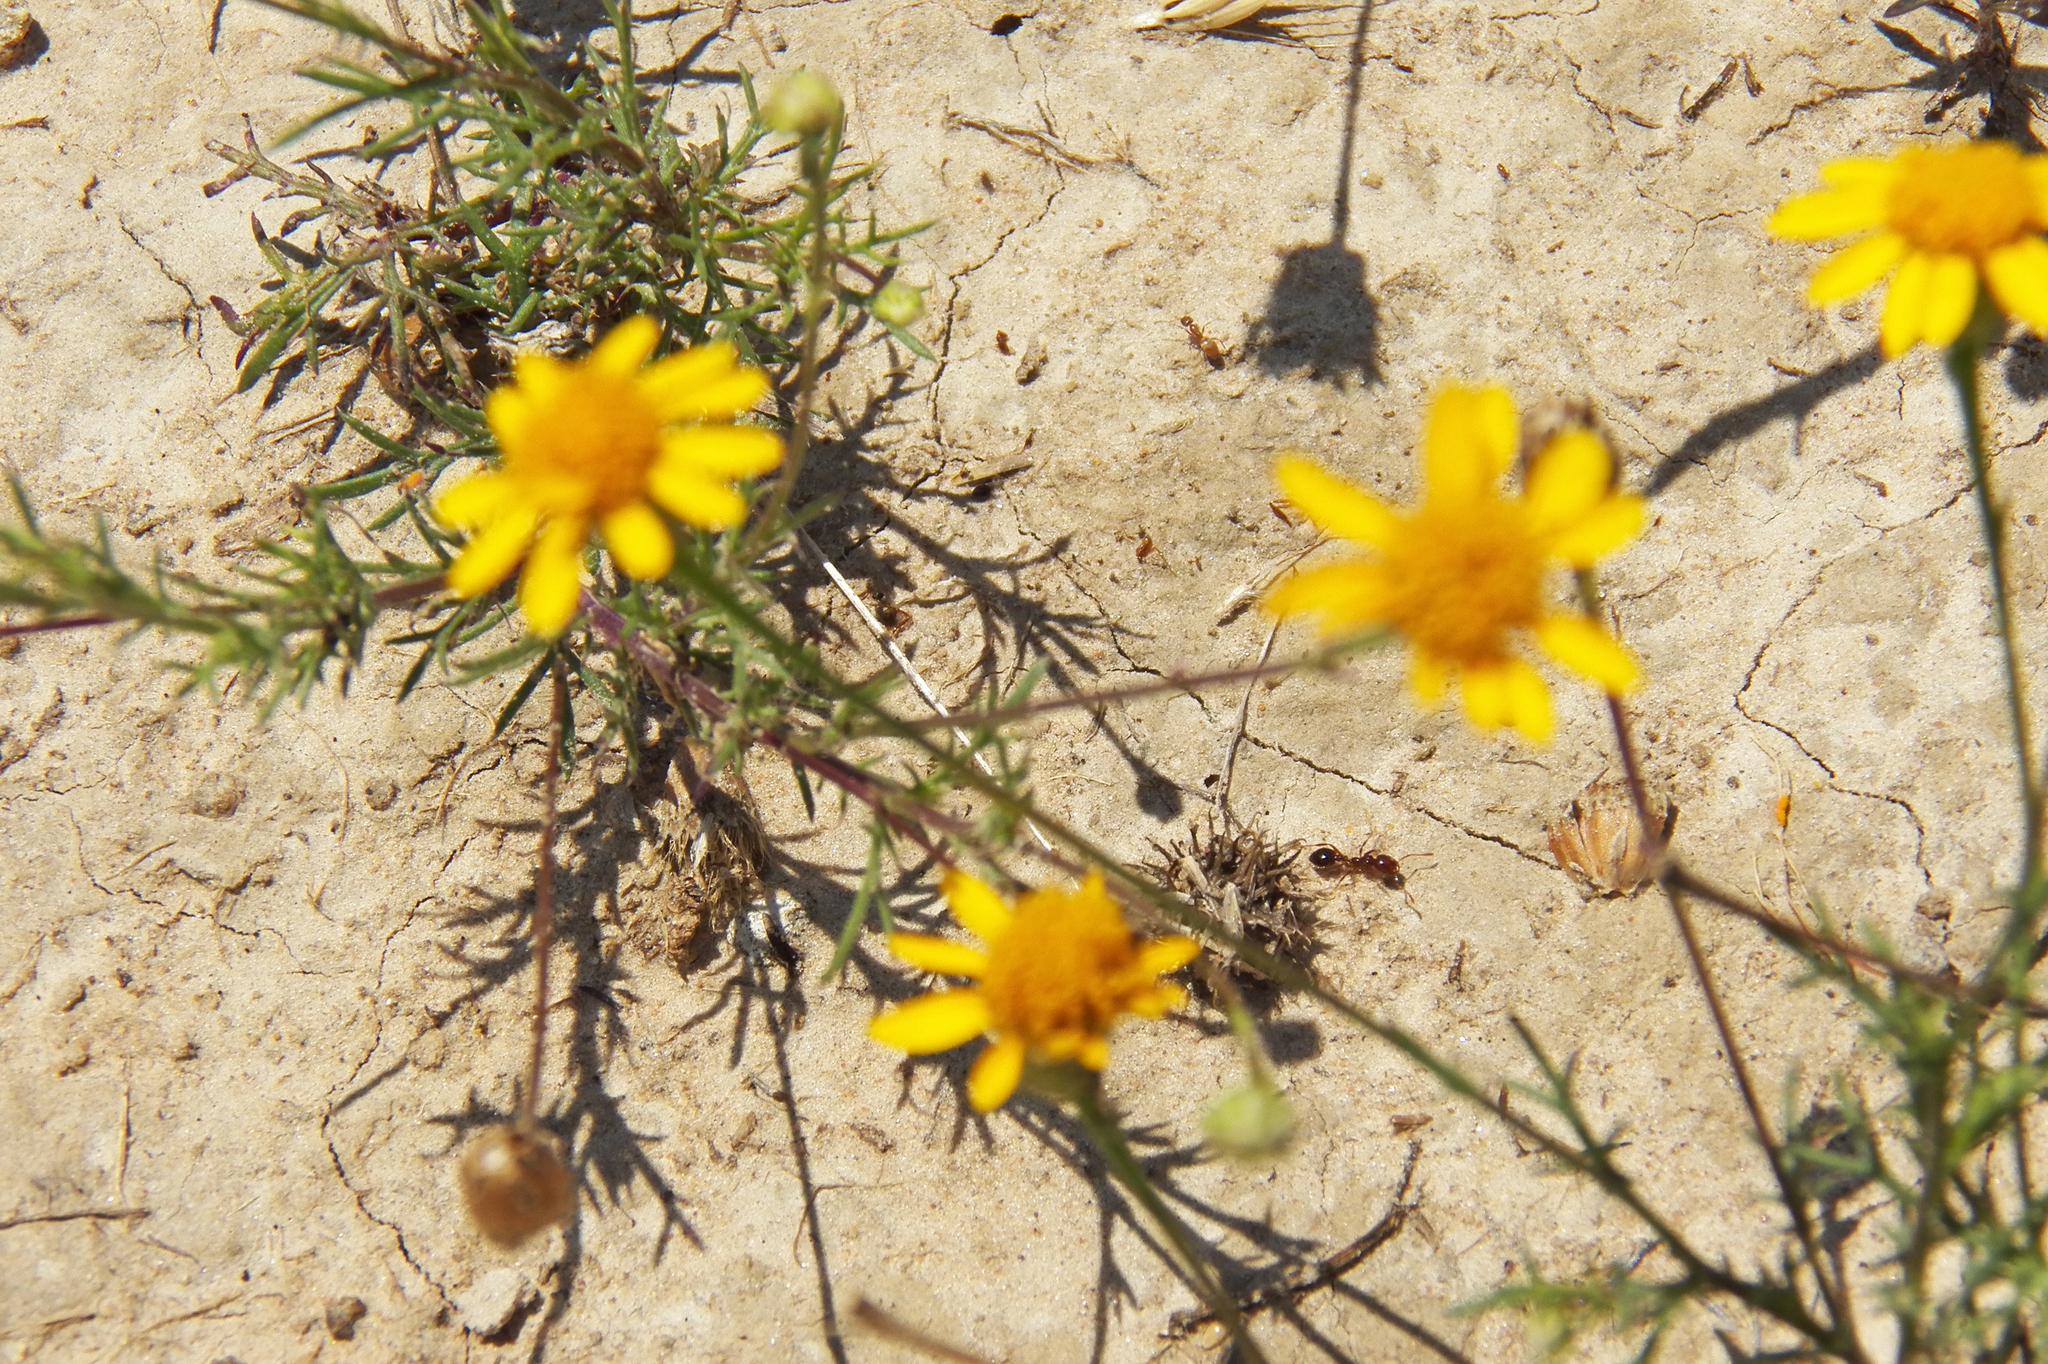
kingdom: Plantae
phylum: Tracheophyta
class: Magnoliopsida
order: Asterales
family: Asteraceae
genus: Thymophylla
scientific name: Thymophylla tenuiloba
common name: Dahlberg's daisy
